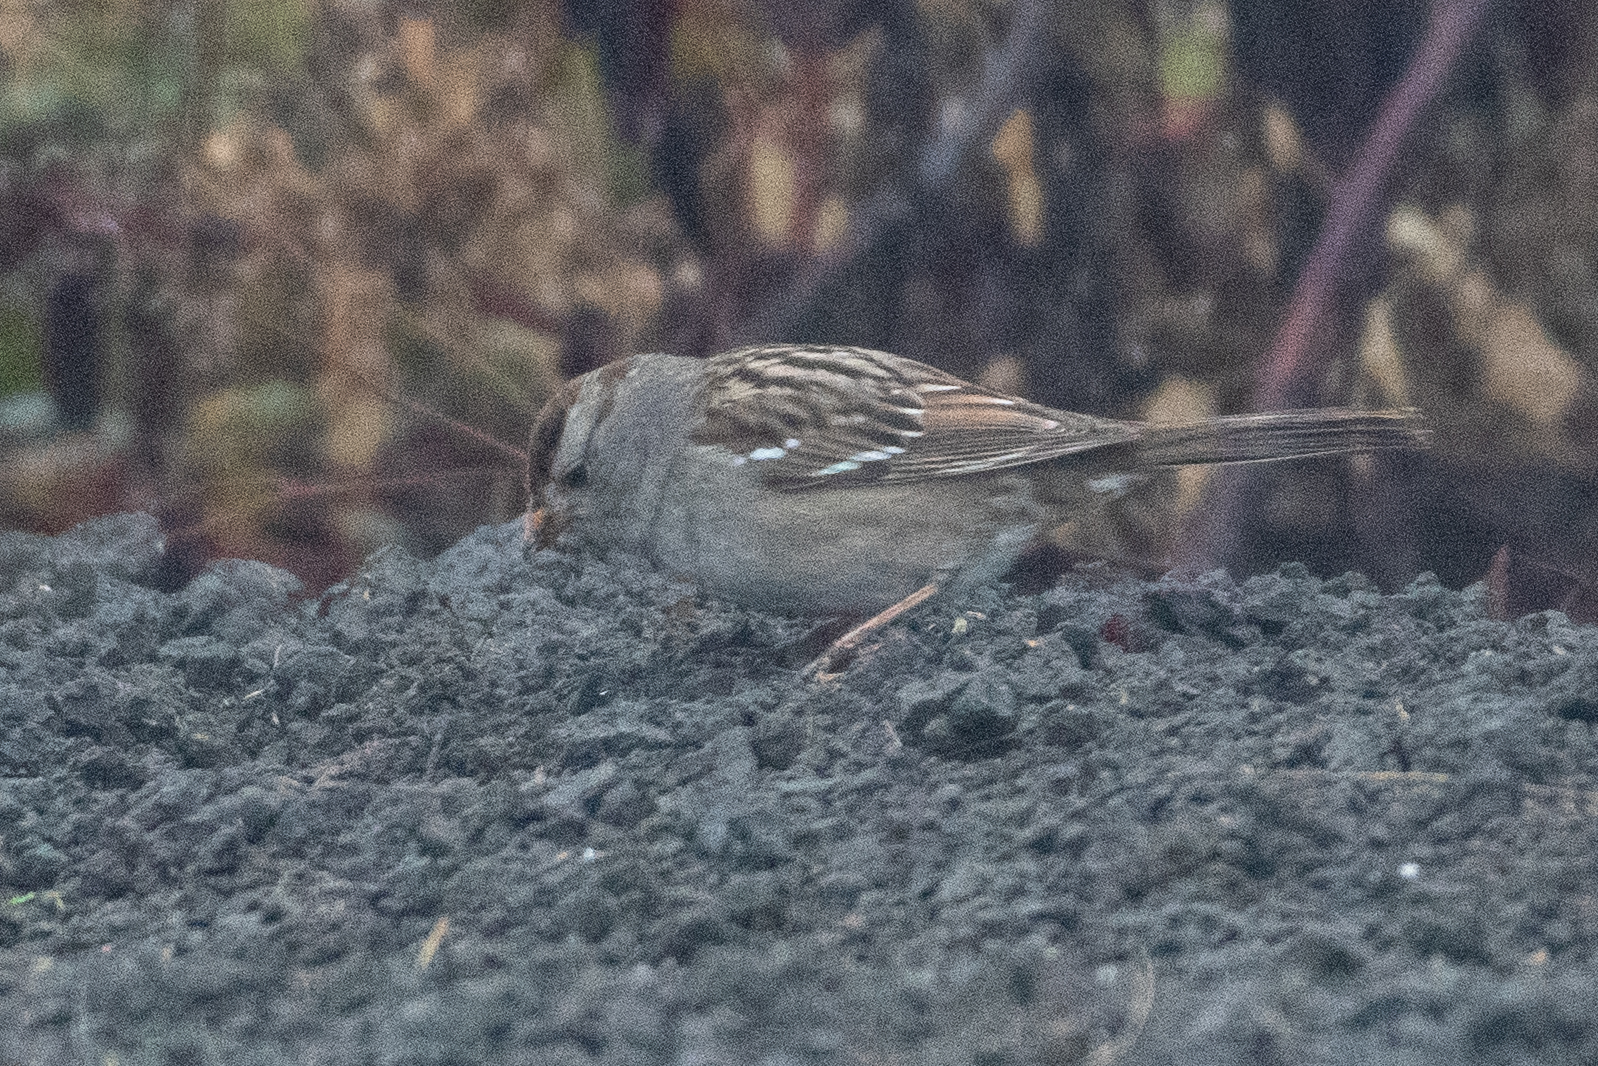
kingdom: Animalia
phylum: Chordata
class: Aves
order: Passeriformes
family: Passerellidae
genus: Zonotrichia
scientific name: Zonotrichia leucophrys
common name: White-crowned sparrow
